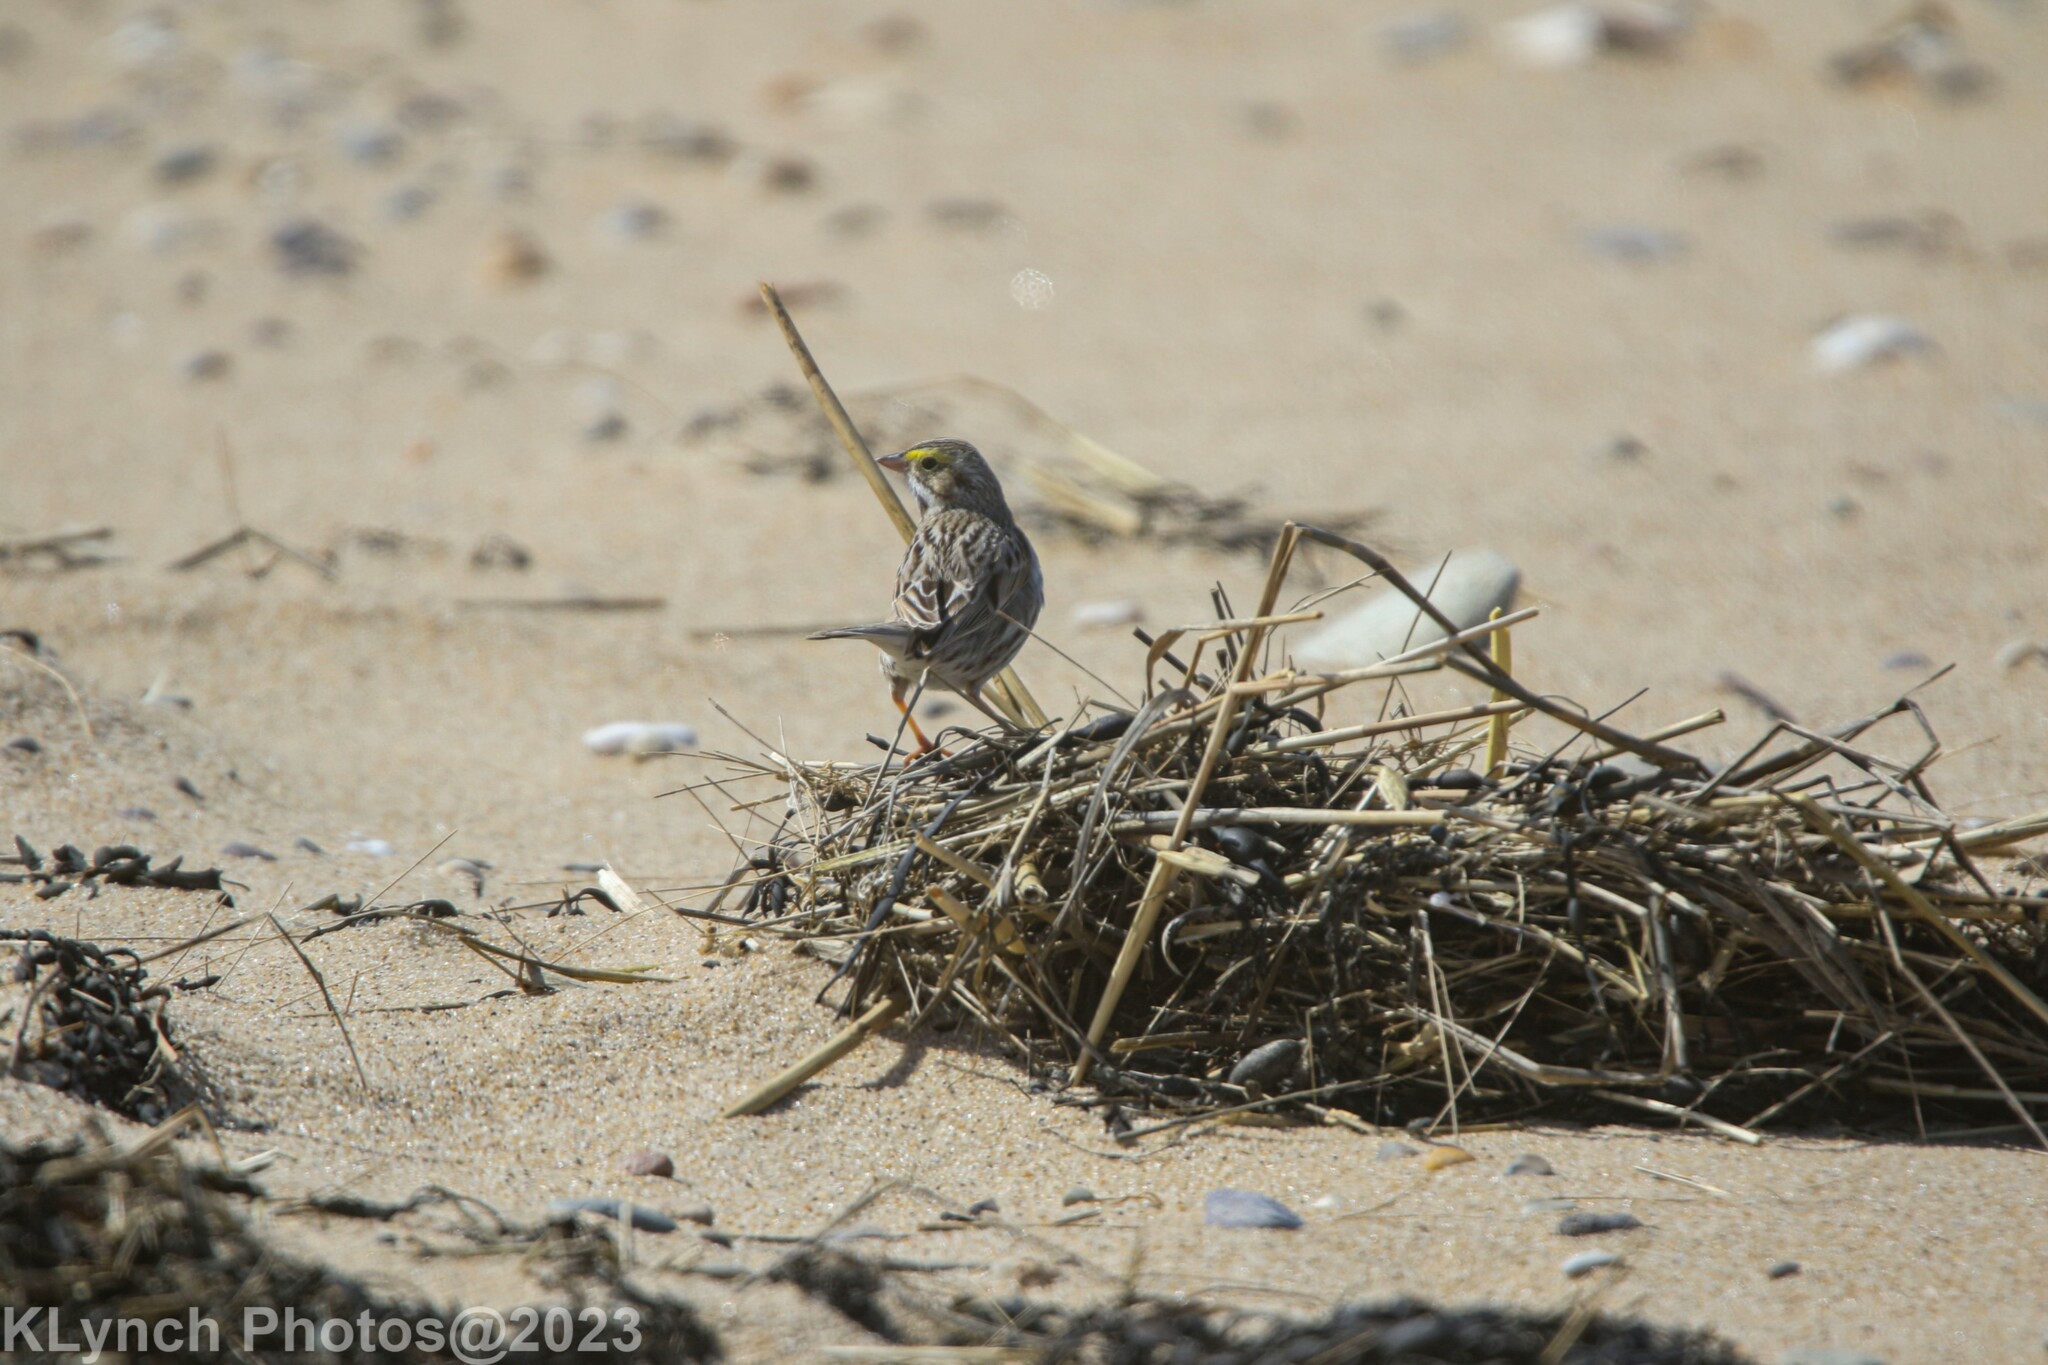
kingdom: Animalia
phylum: Chordata
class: Aves
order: Passeriformes
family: Passerellidae
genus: Passerculus
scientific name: Passerculus sandwichensis
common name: Savannah sparrow
